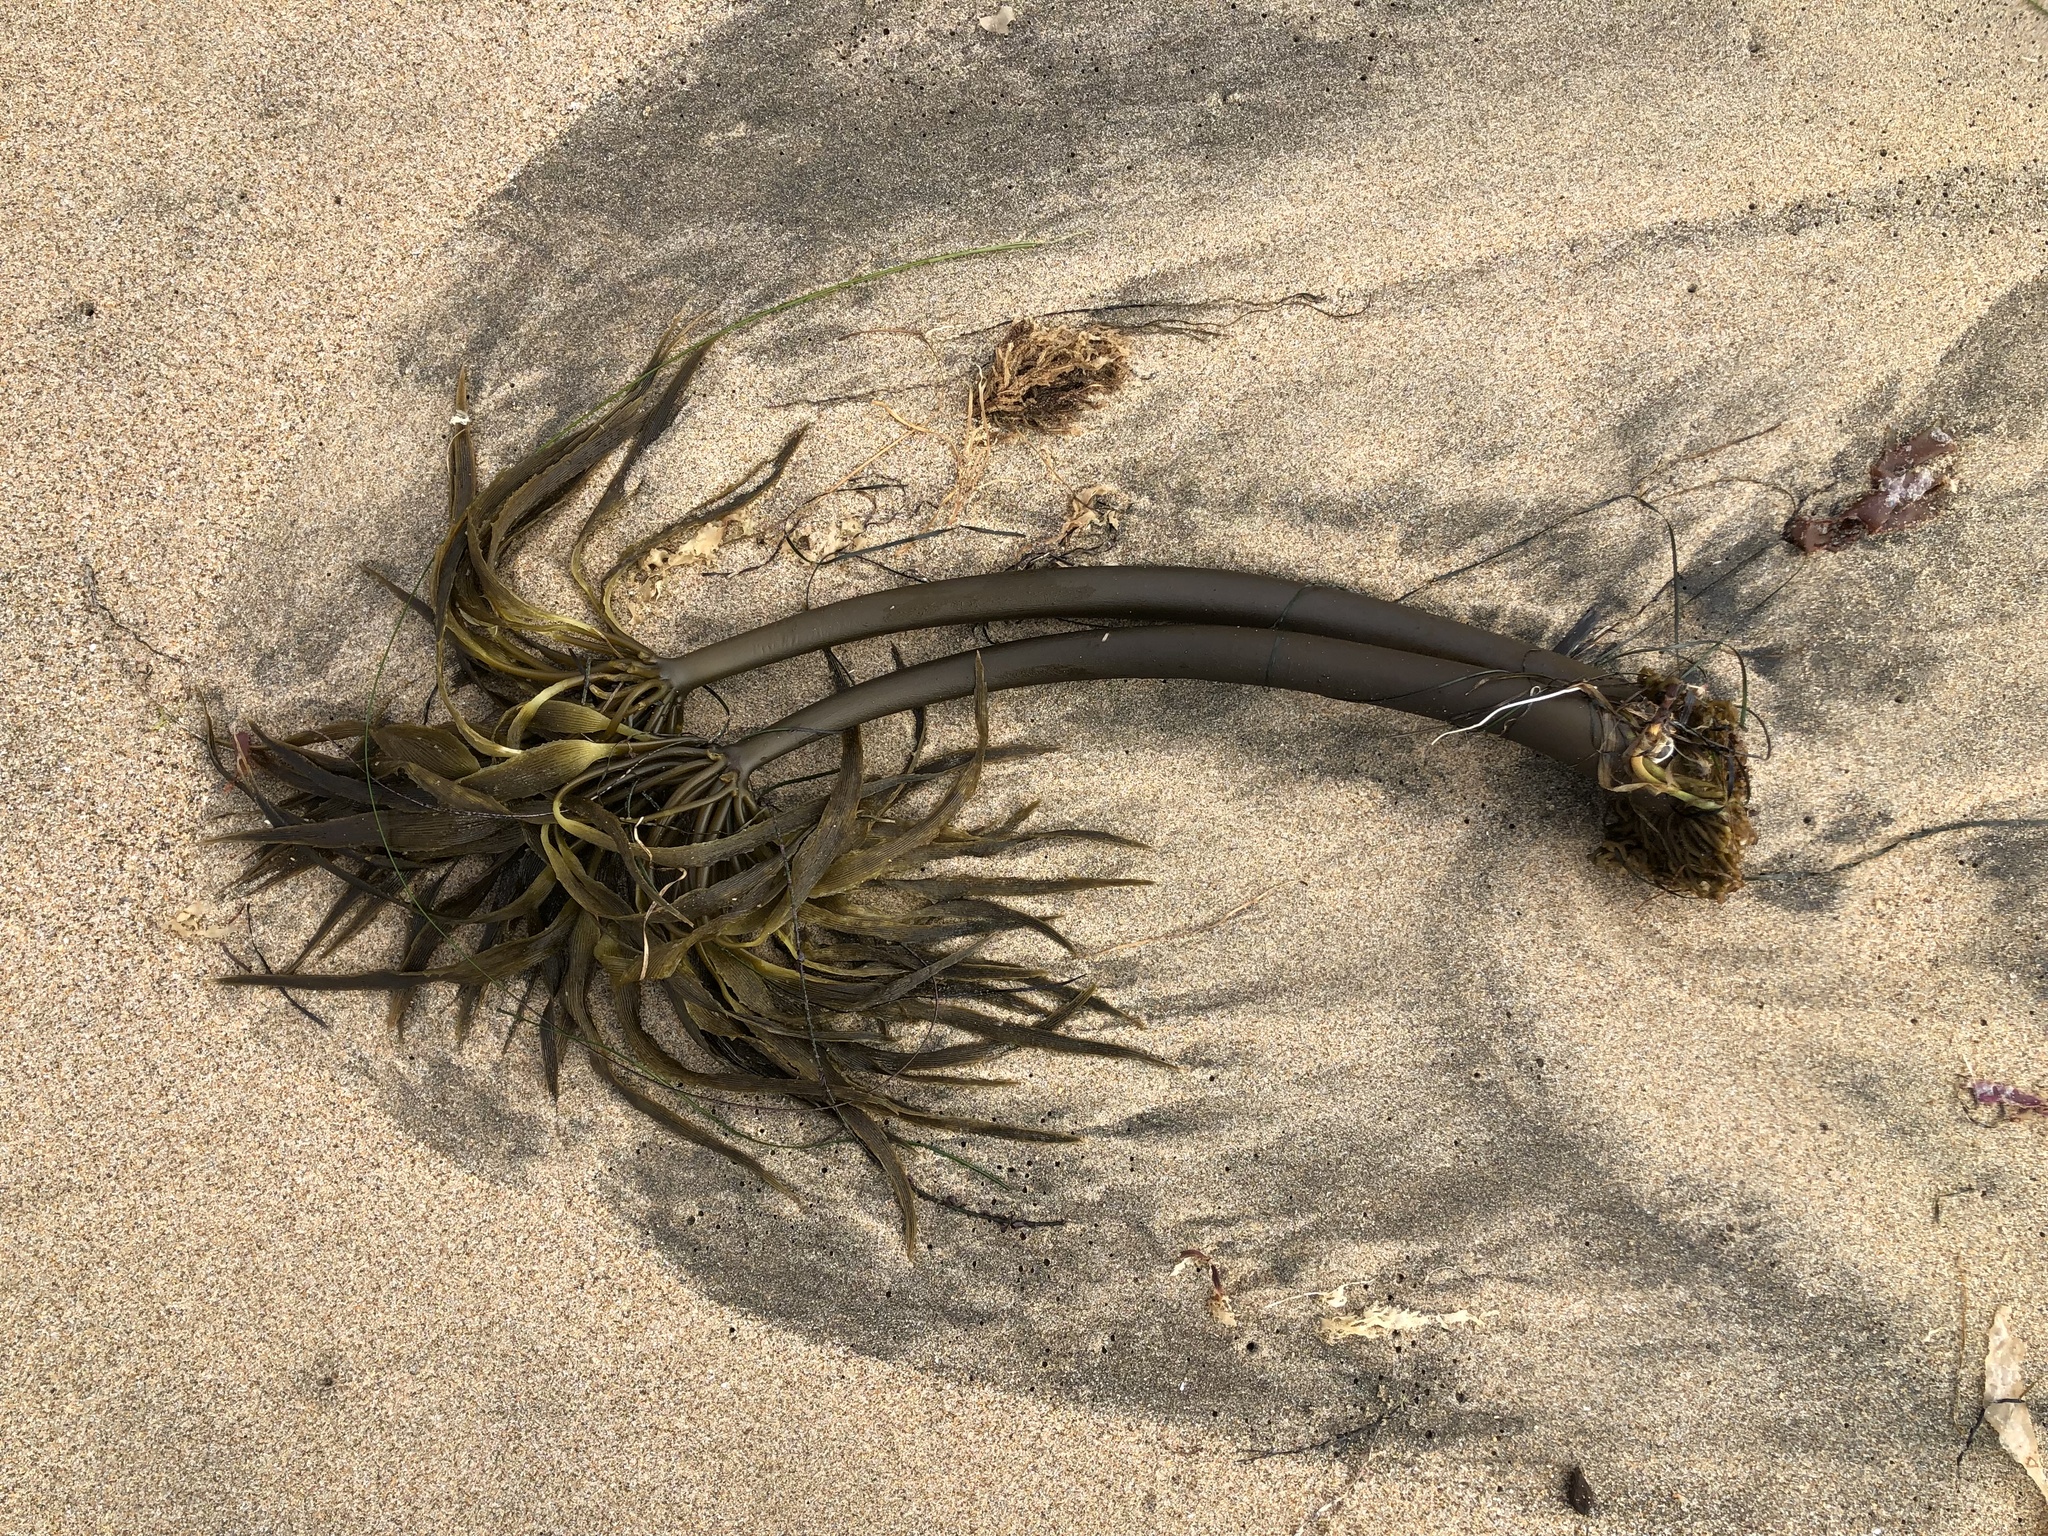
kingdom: Chromista
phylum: Ochrophyta
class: Phaeophyceae
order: Laminariales
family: Laminariaceae
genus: Postelsia
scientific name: Postelsia palmiformis
